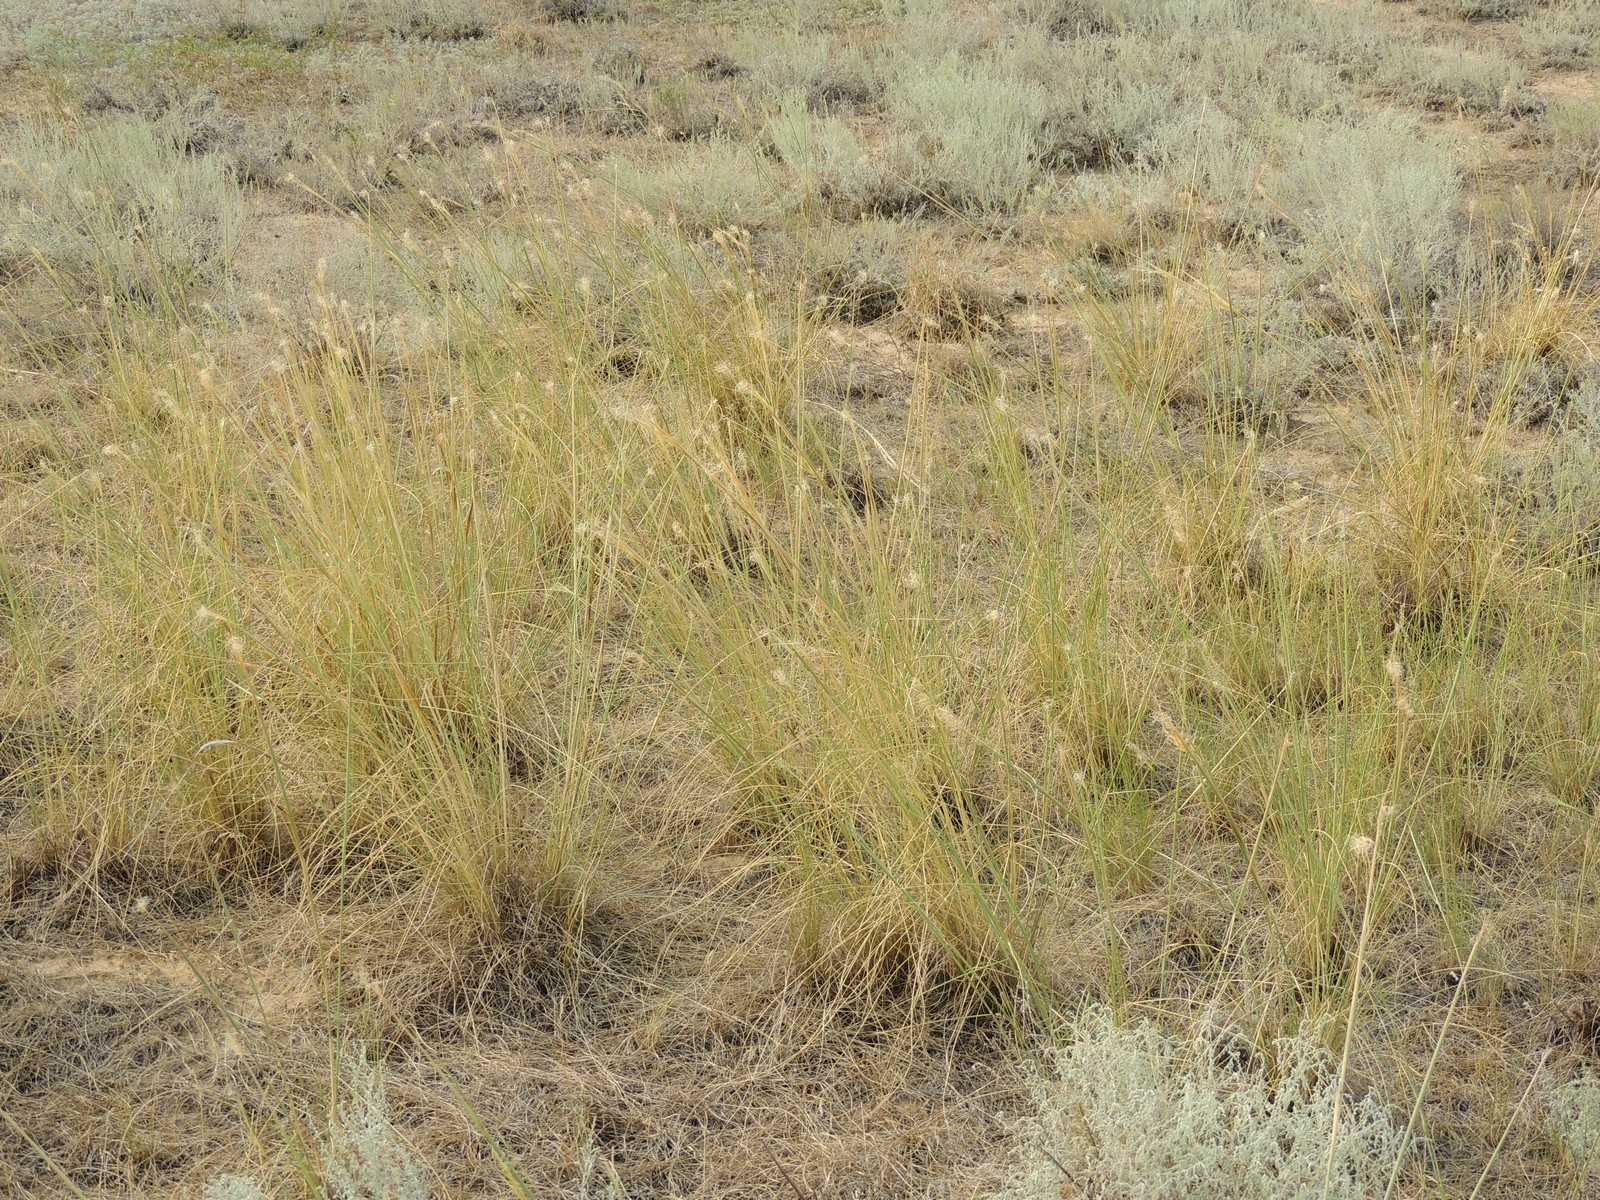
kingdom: Plantae
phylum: Tracheophyta
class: Liliopsida
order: Poales
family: Poaceae
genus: Stipa
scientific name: Stipa capillata
